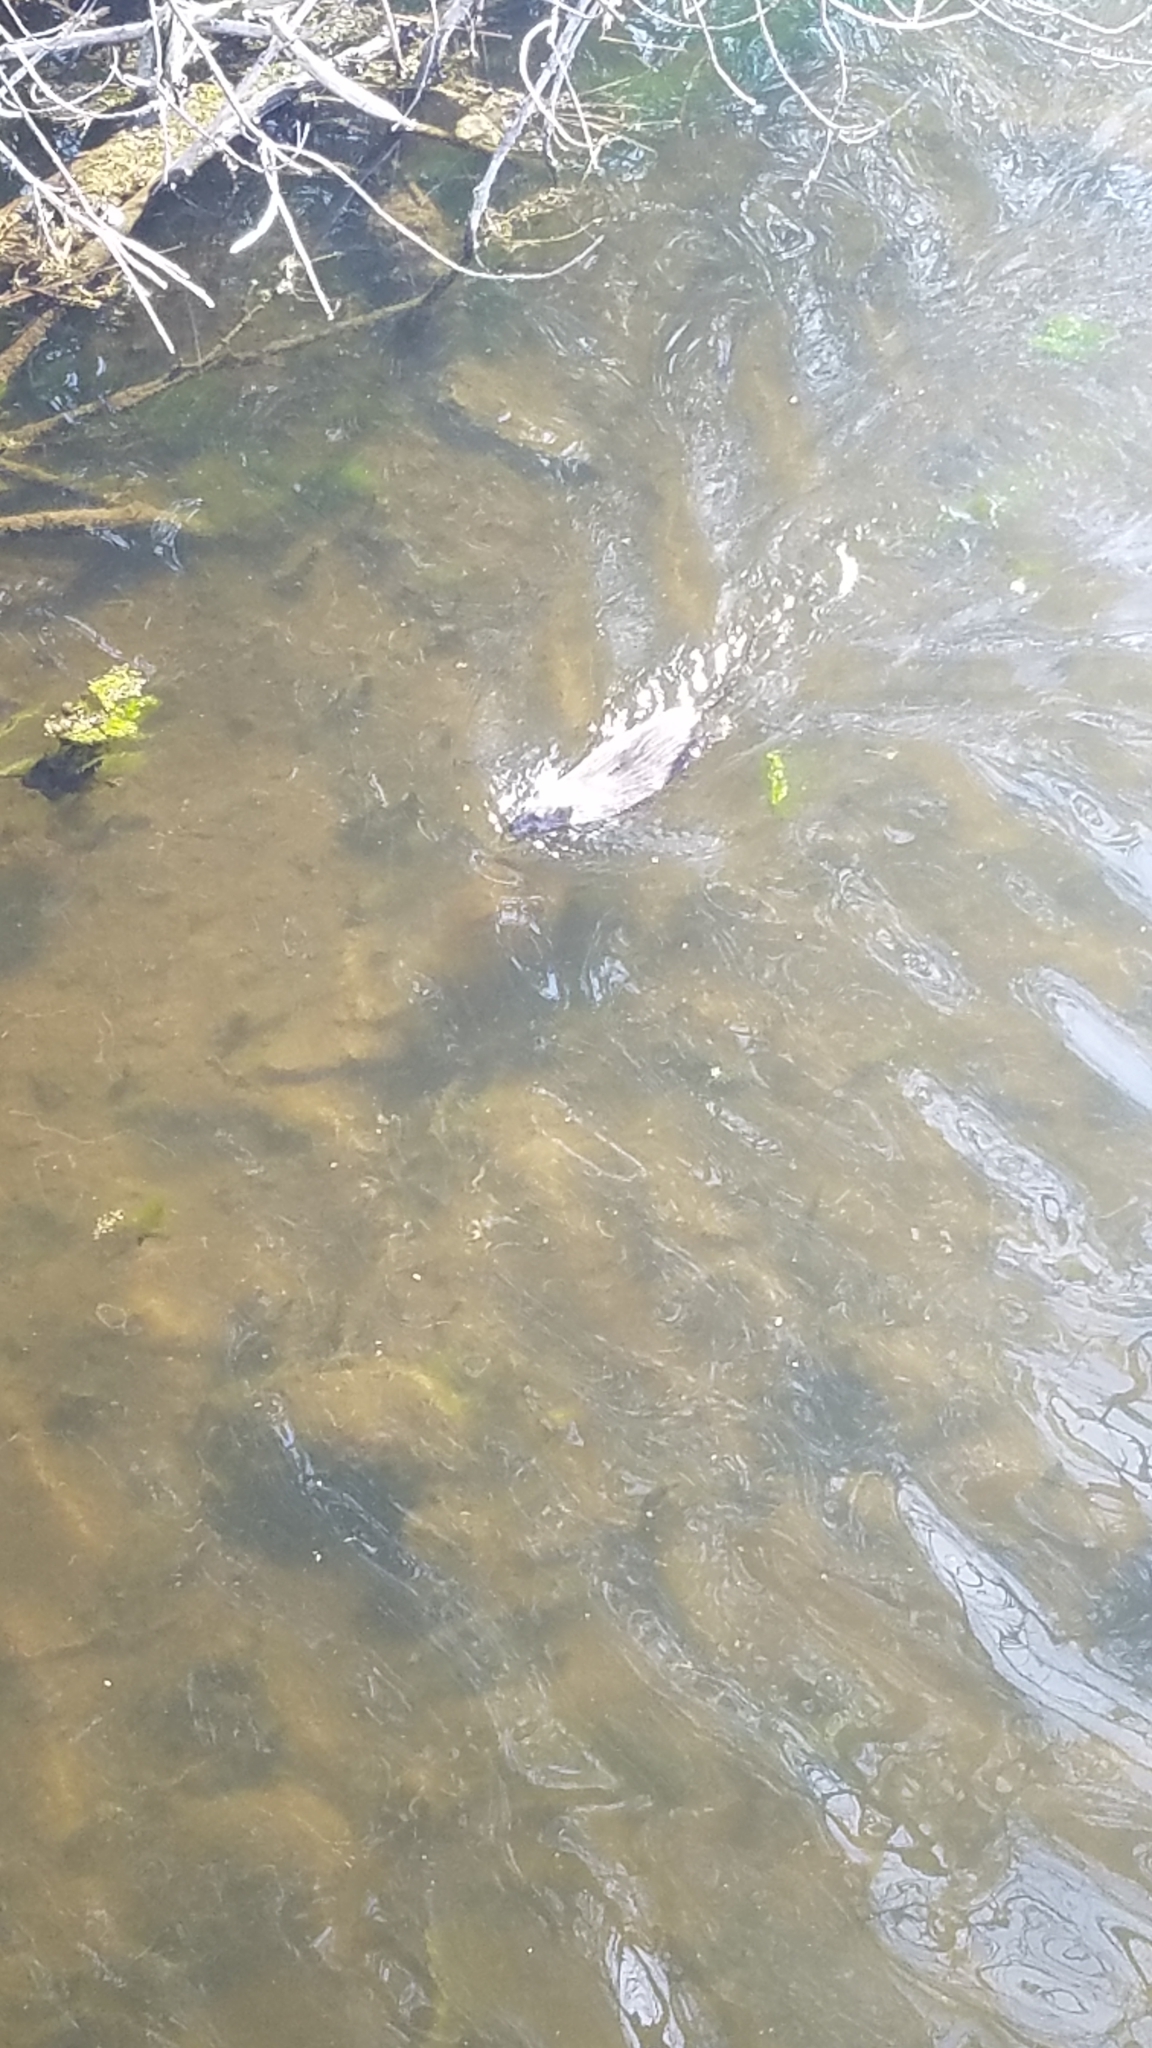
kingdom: Animalia
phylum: Chordata
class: Mammalia
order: Rodentia
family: Cricetidae
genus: Ondatra
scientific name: Ondatra zibethicus
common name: Muskrat
